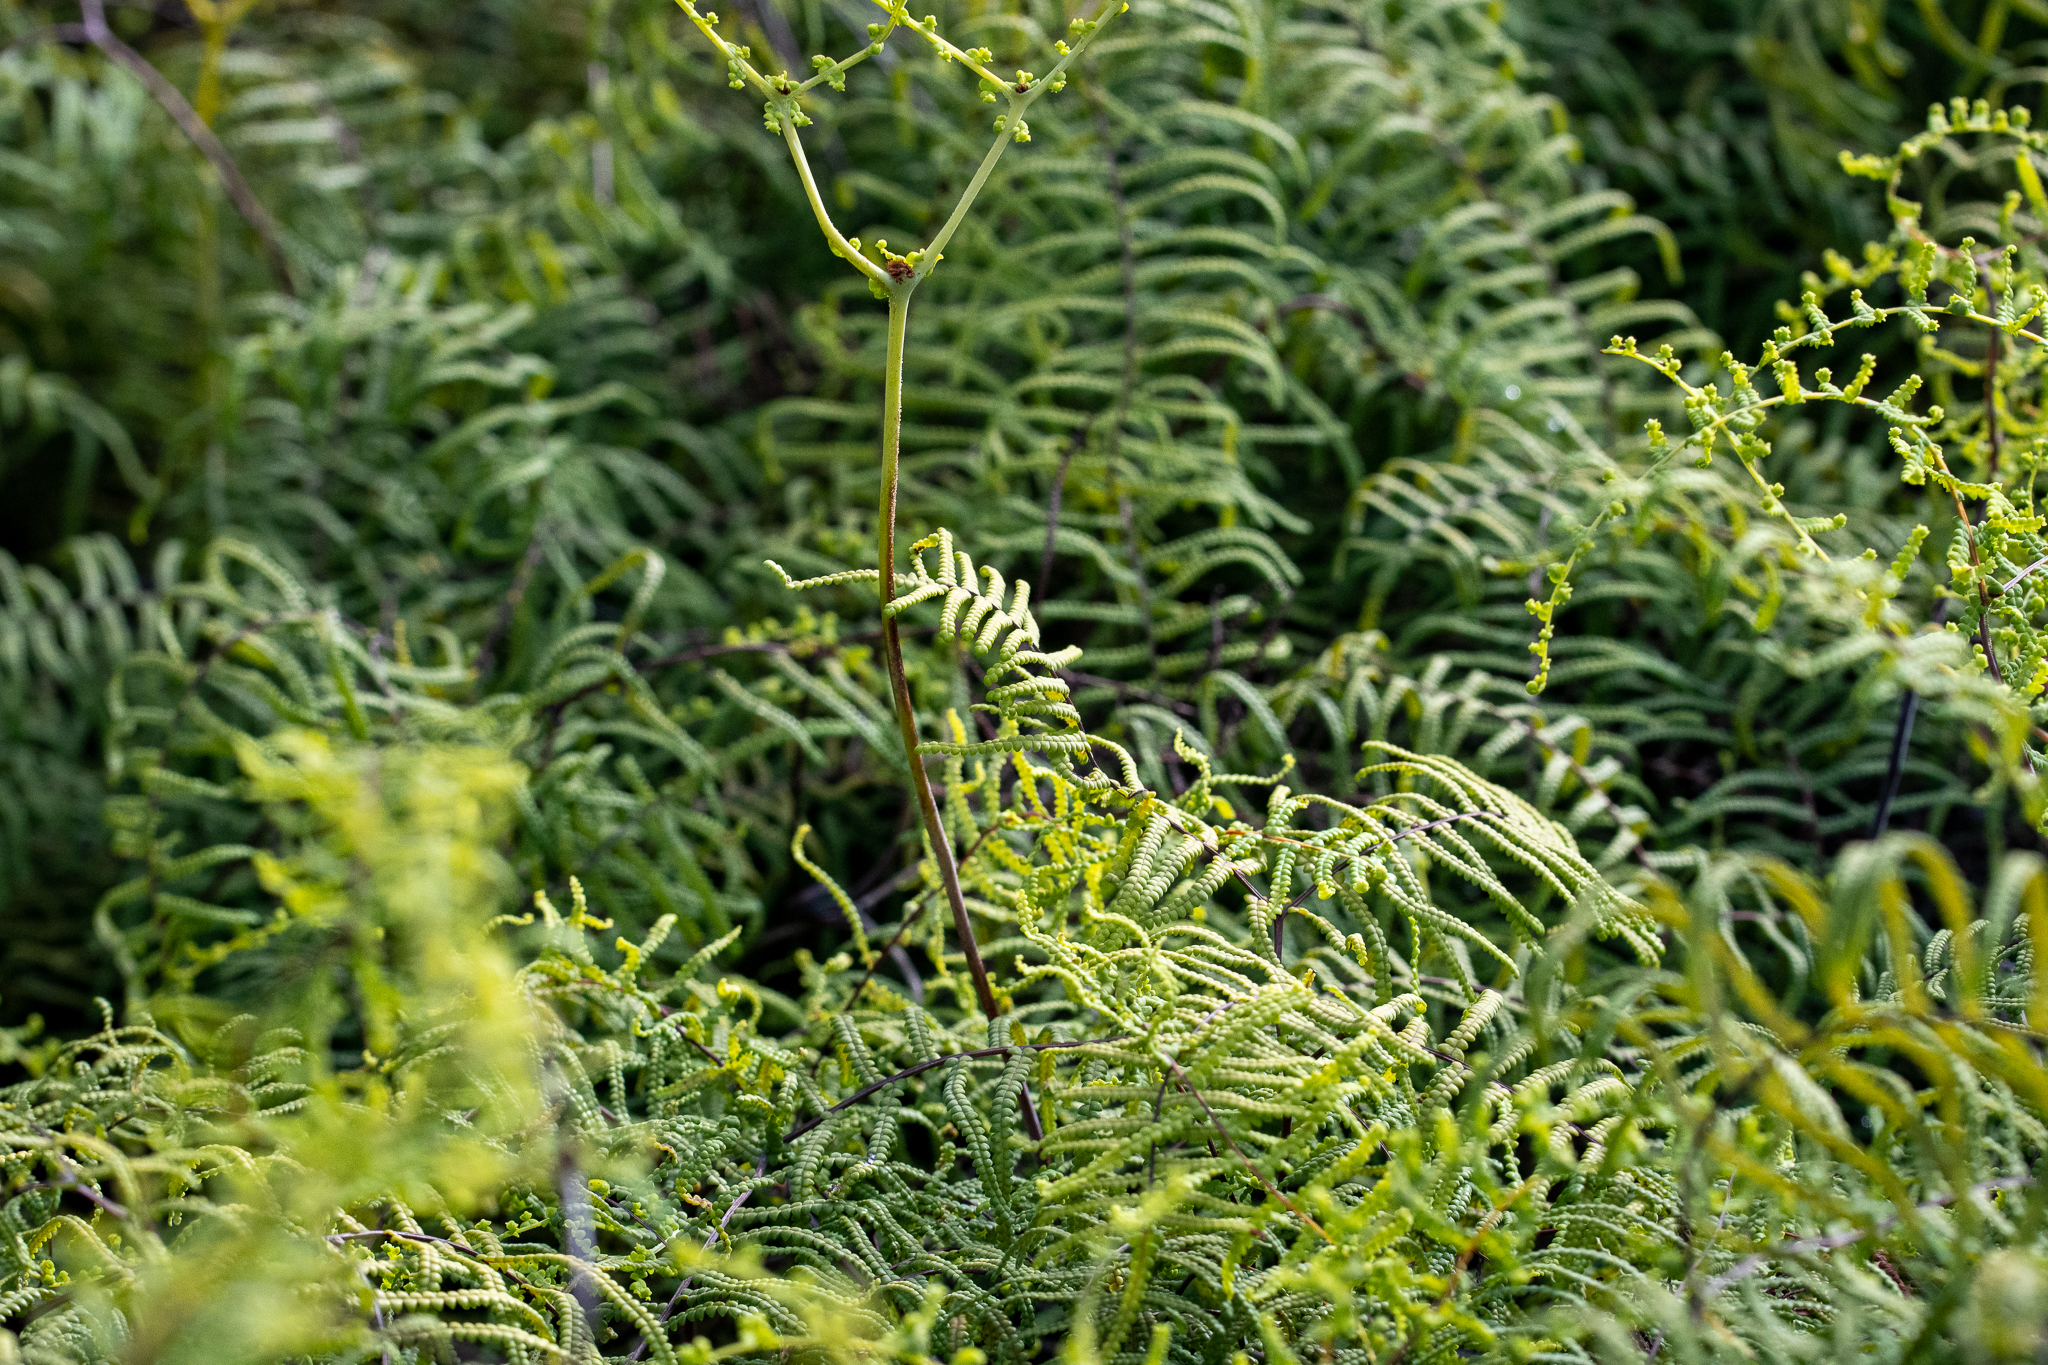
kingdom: Plantae
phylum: Tracheophyta
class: Polypodiopsida
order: Gleicheniales
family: Gleicheniaceae
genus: Gleichenia
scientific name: Gleichenia polypodioides
